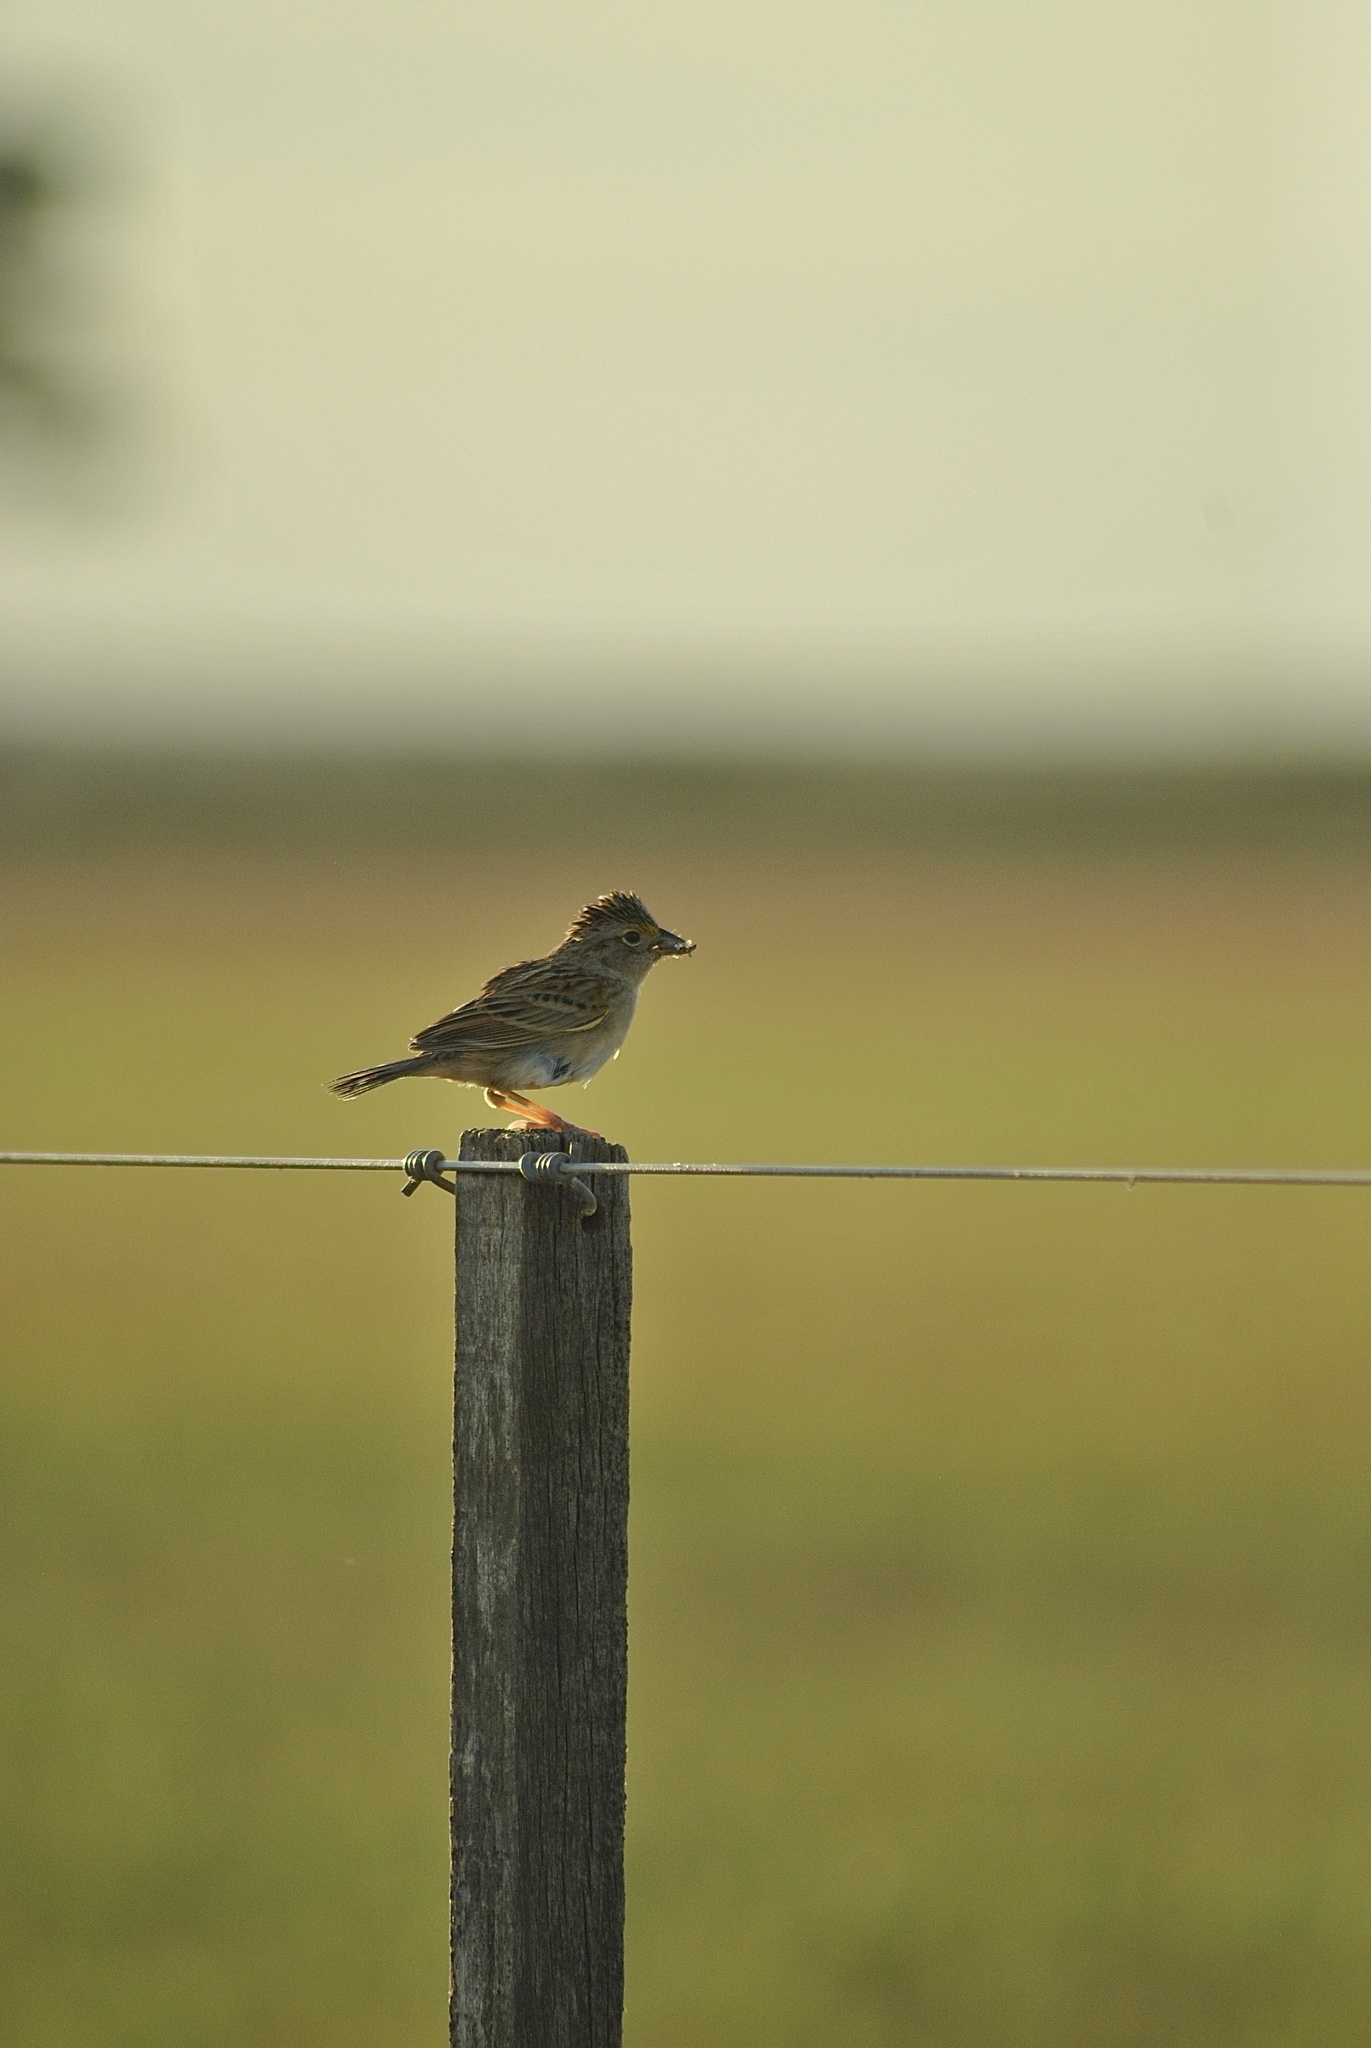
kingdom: Animalia
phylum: Chordata
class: Aves
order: Passeriformes
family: Passerellidae
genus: Ammodramus
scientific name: Ammodramus humeralis
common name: Grassland sparrow
